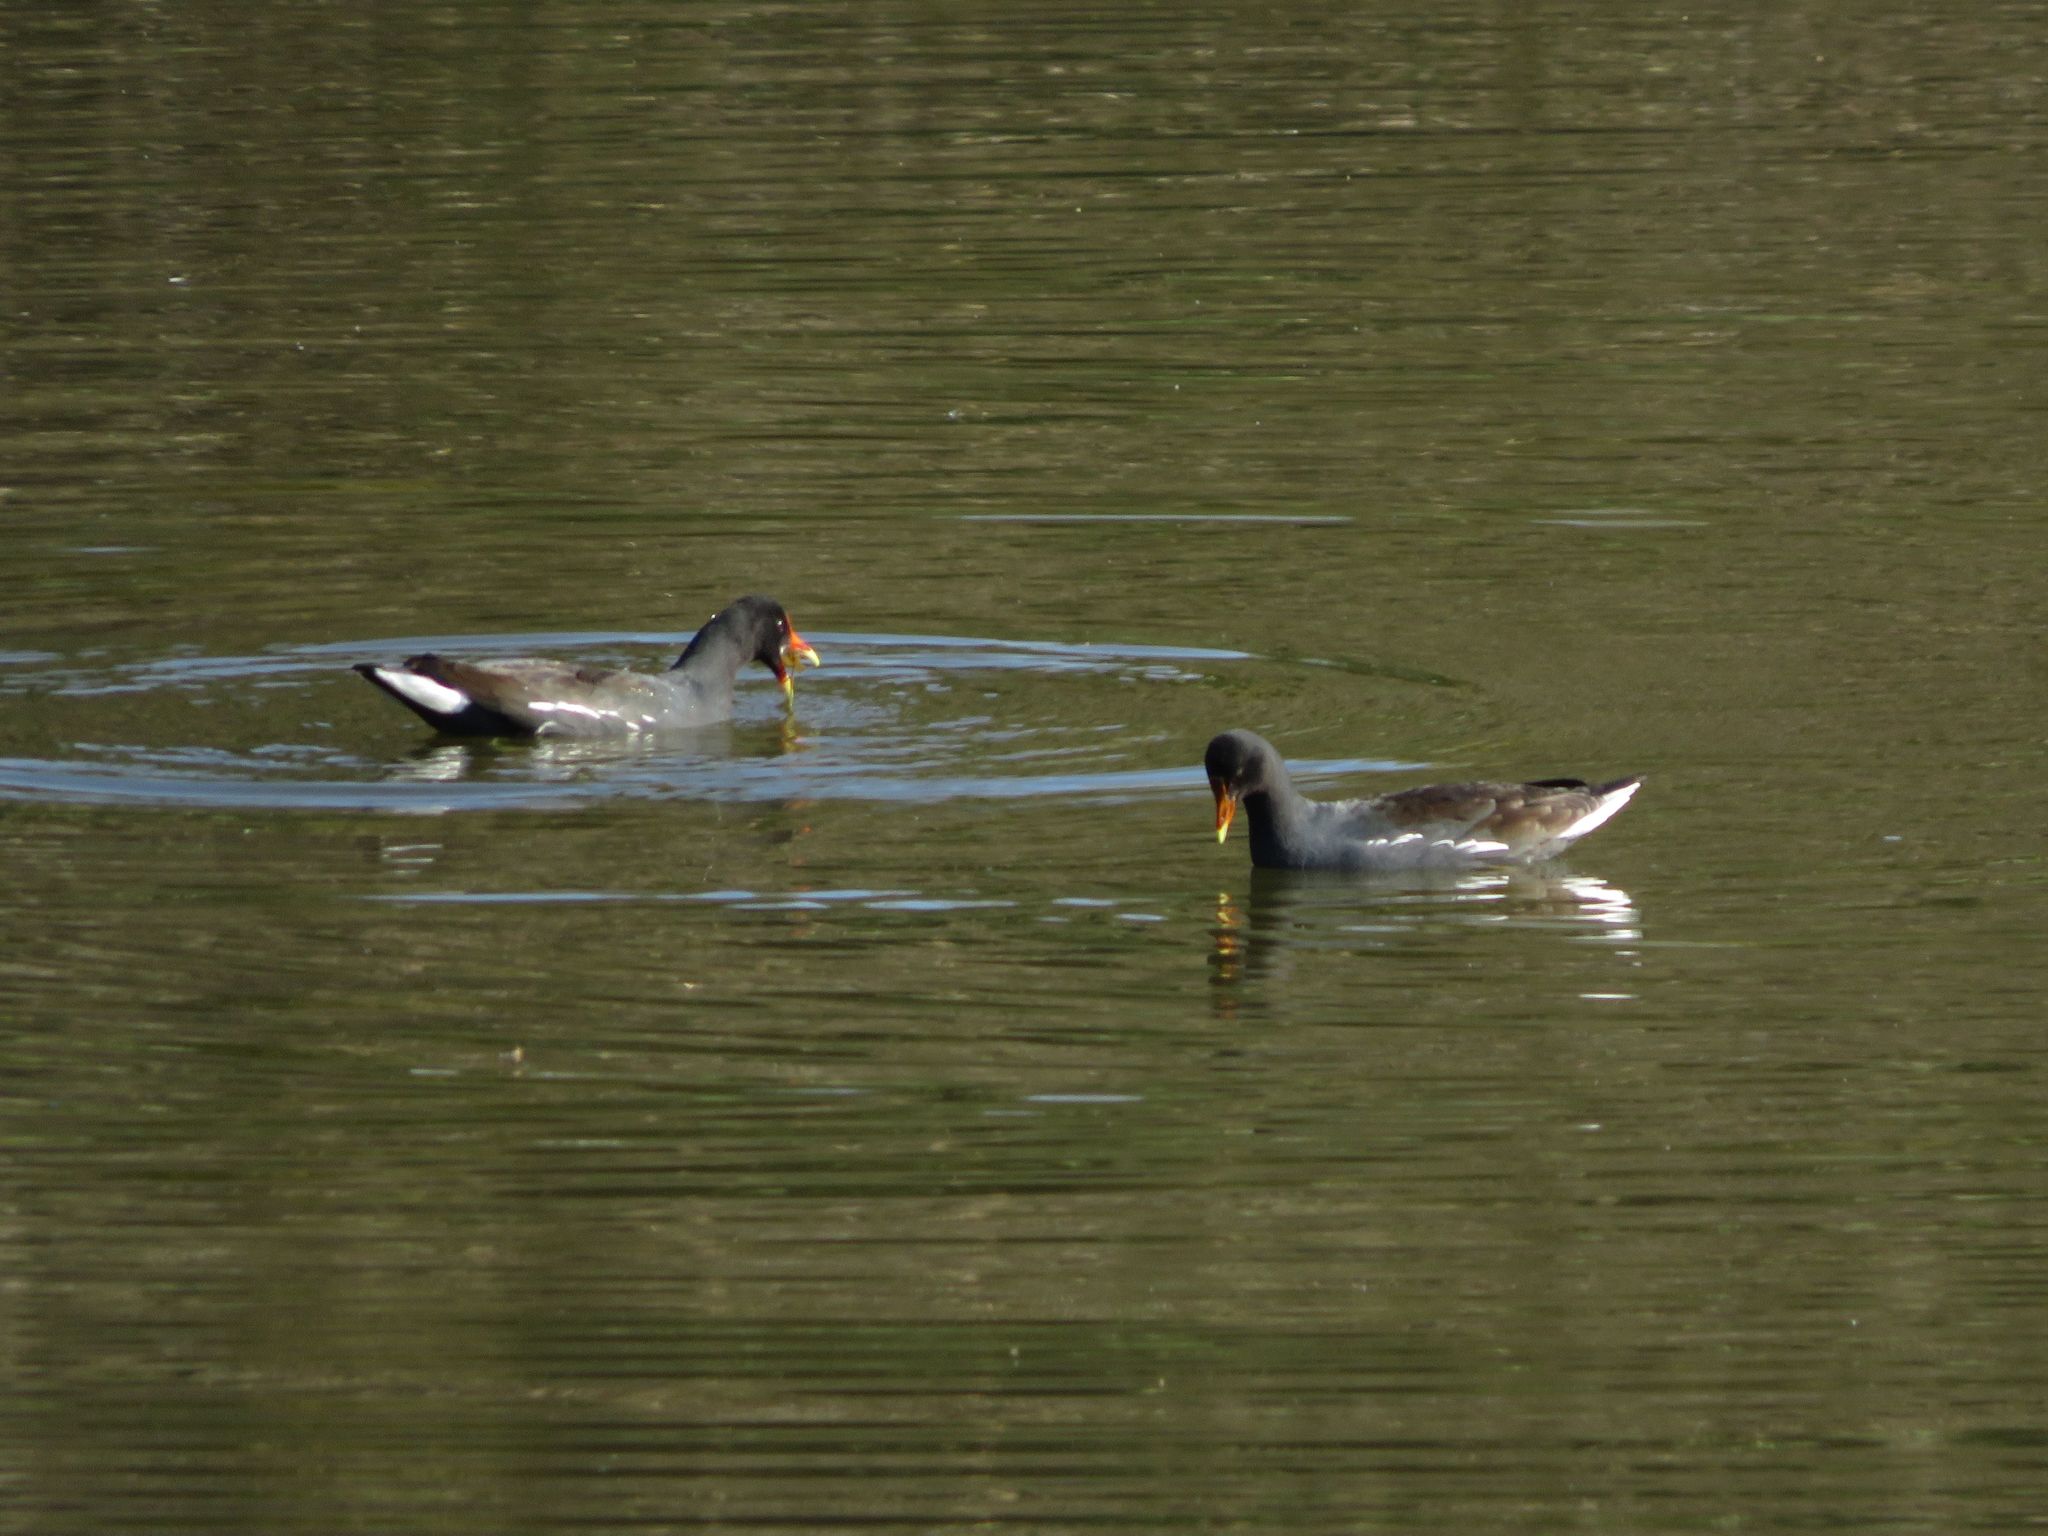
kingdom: Animalia
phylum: Chordata
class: Aves
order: Gruiformes
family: Rallidae
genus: Gallinula
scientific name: Gallinula chloropus
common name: Common moorhen
